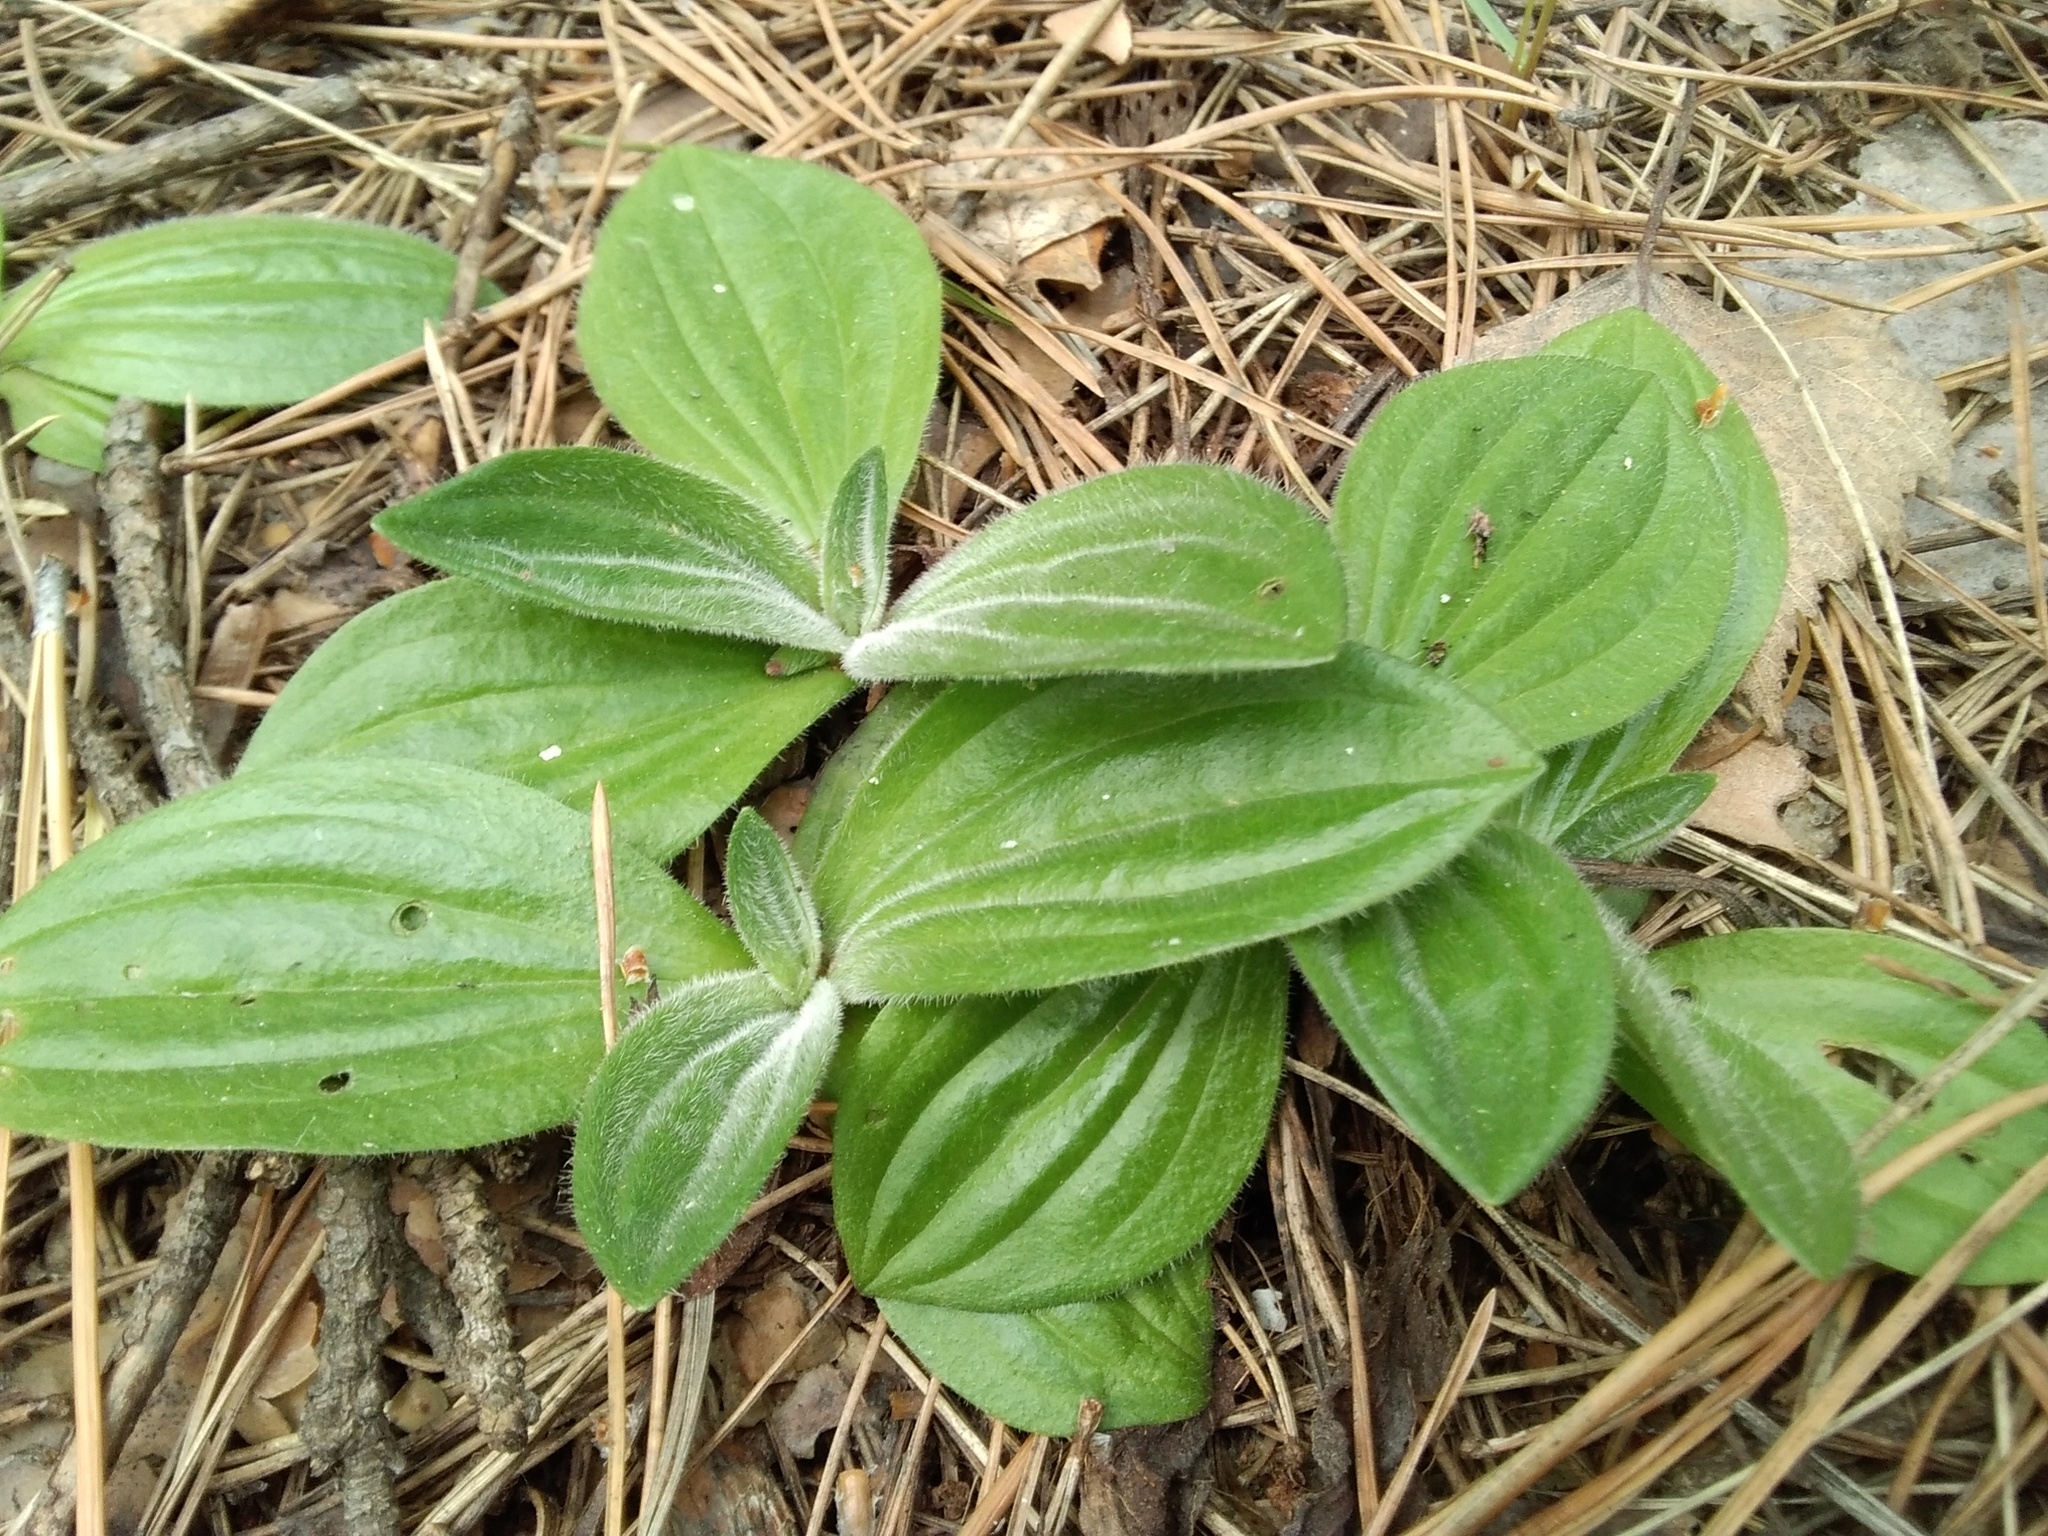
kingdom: Plantae
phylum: Tracheophyta
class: Magnoliopsida
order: Lamiales
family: Plantaginaceae
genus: Plantago
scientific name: Plantago media
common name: Hoary plantain
